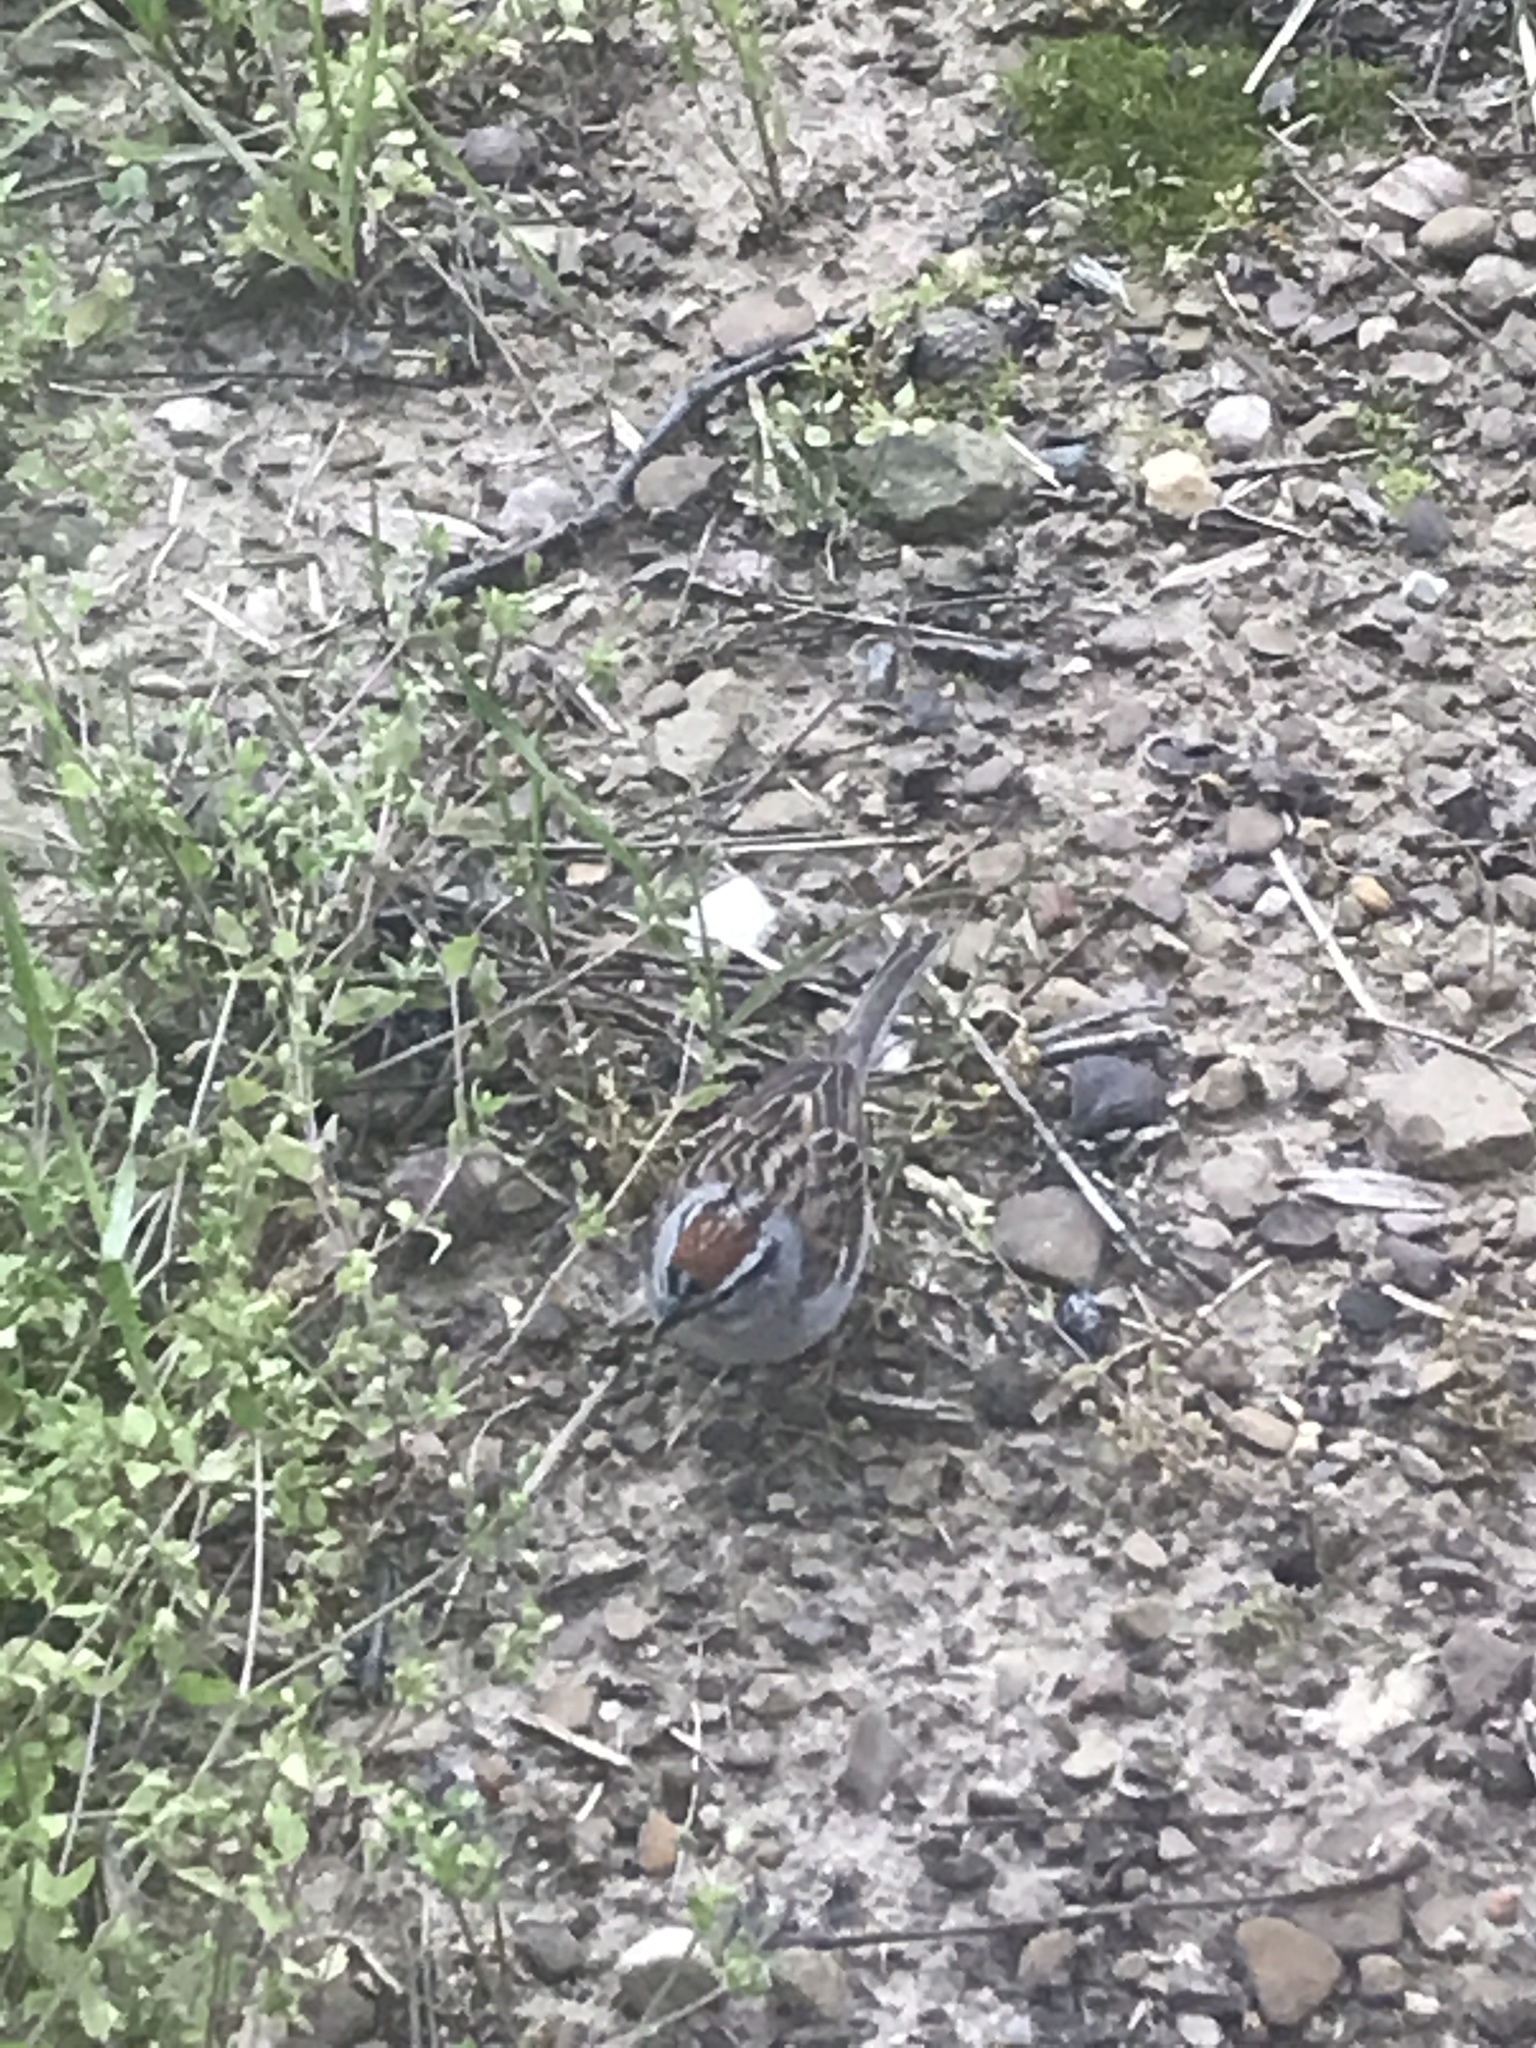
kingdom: Animalia
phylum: Chordata
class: Aves
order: Passeriformes
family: Passerellidae
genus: Spizella
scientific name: Spizella passerina
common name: Chipping sparrow
